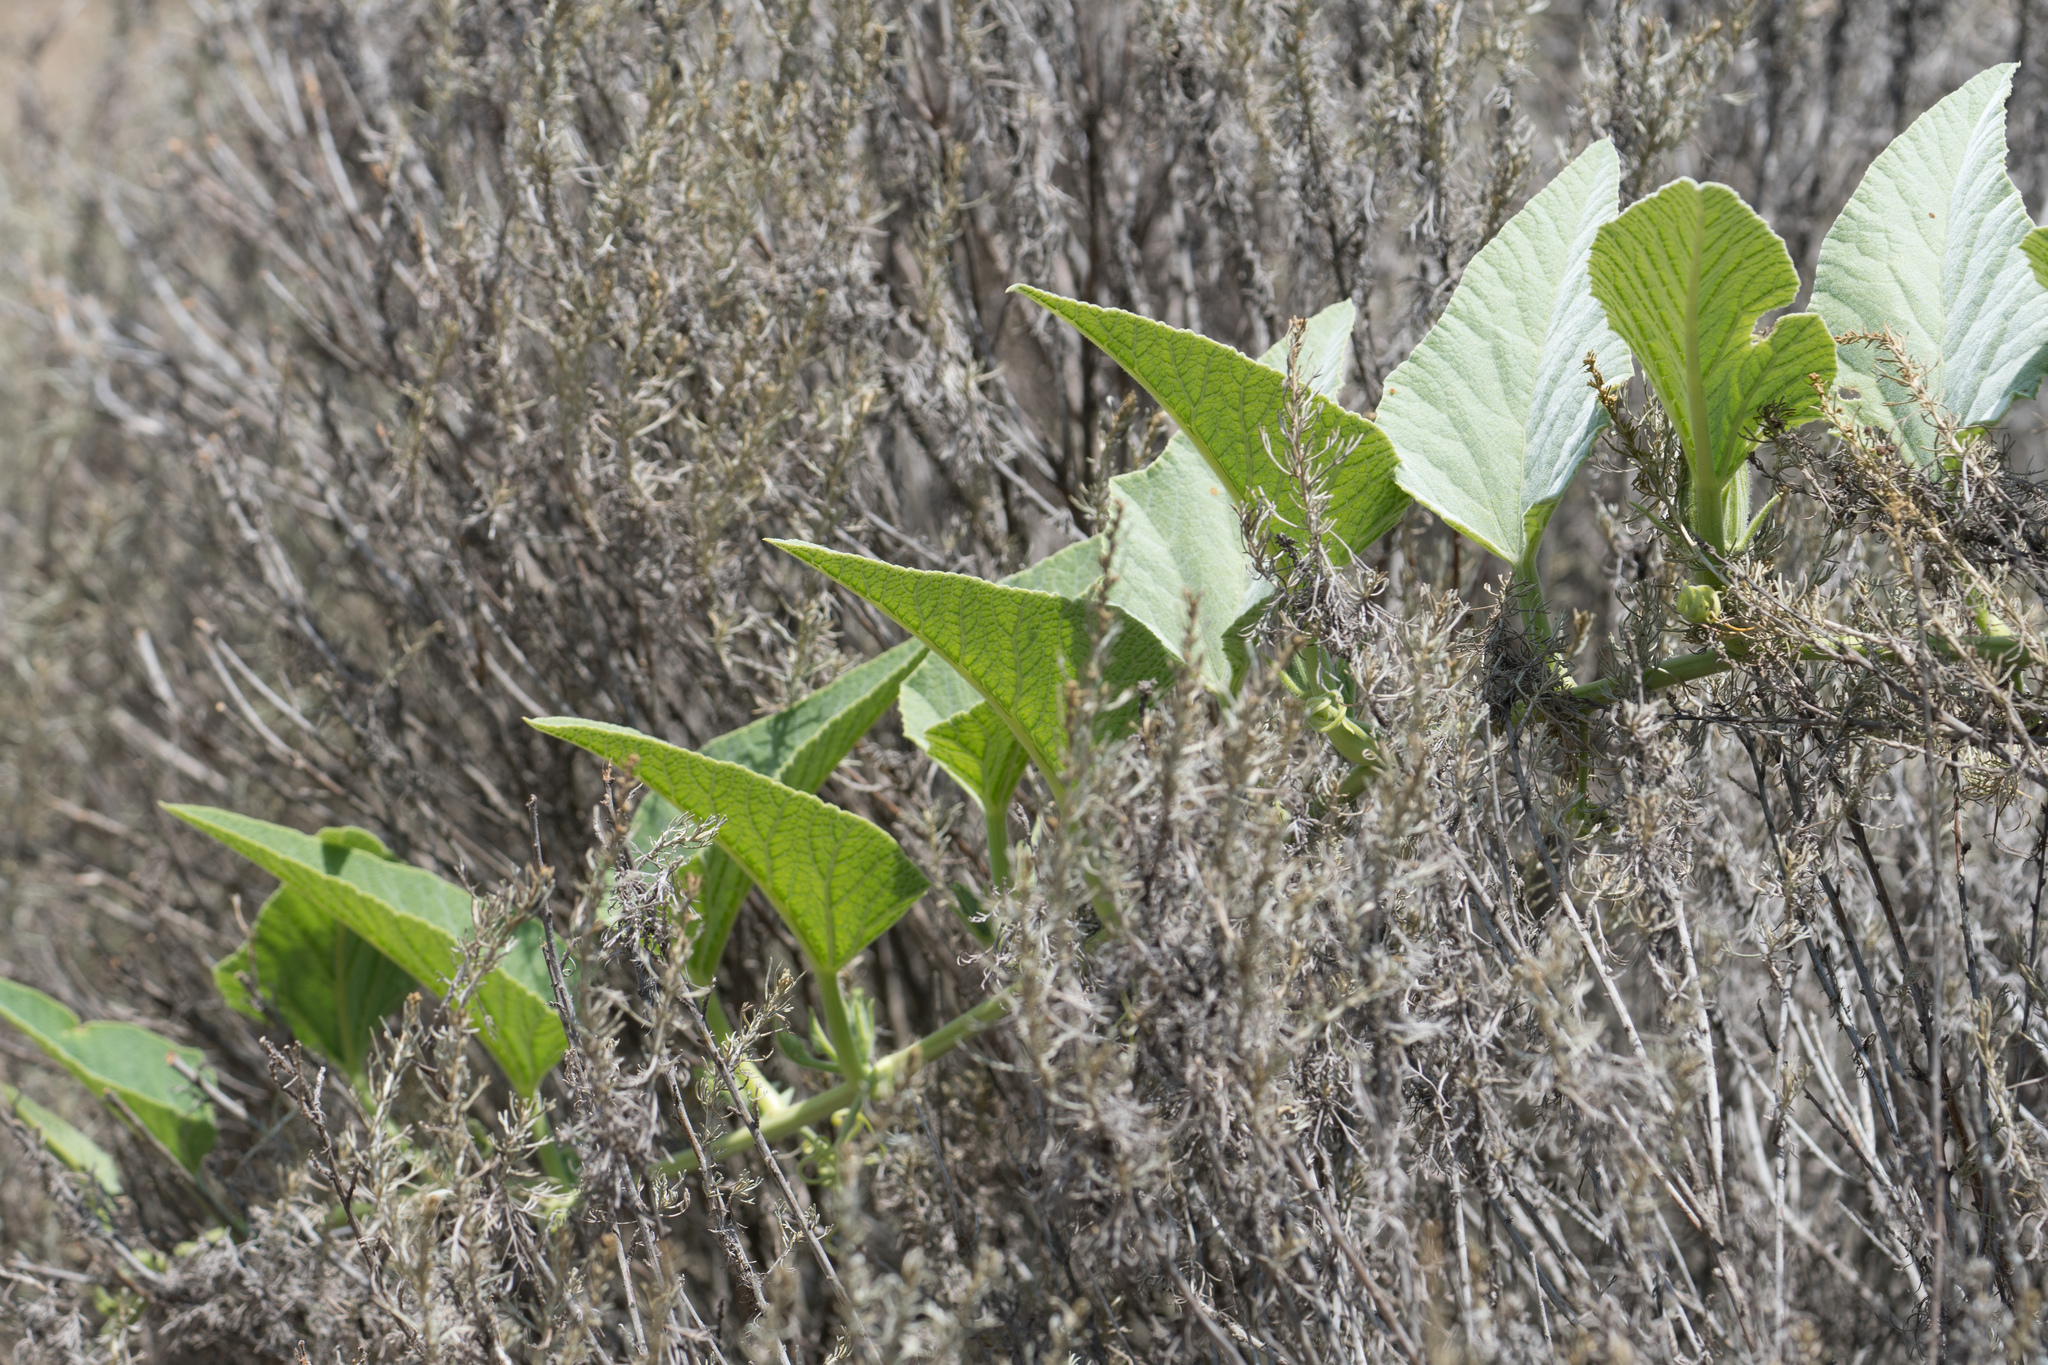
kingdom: Plantae
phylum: Tracheophyta
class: Magnoliopsida
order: Cucurbitales
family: Cucurbitaceae
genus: Cucurbita
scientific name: Cucurbita foetidissima
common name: Buffalo gourd
